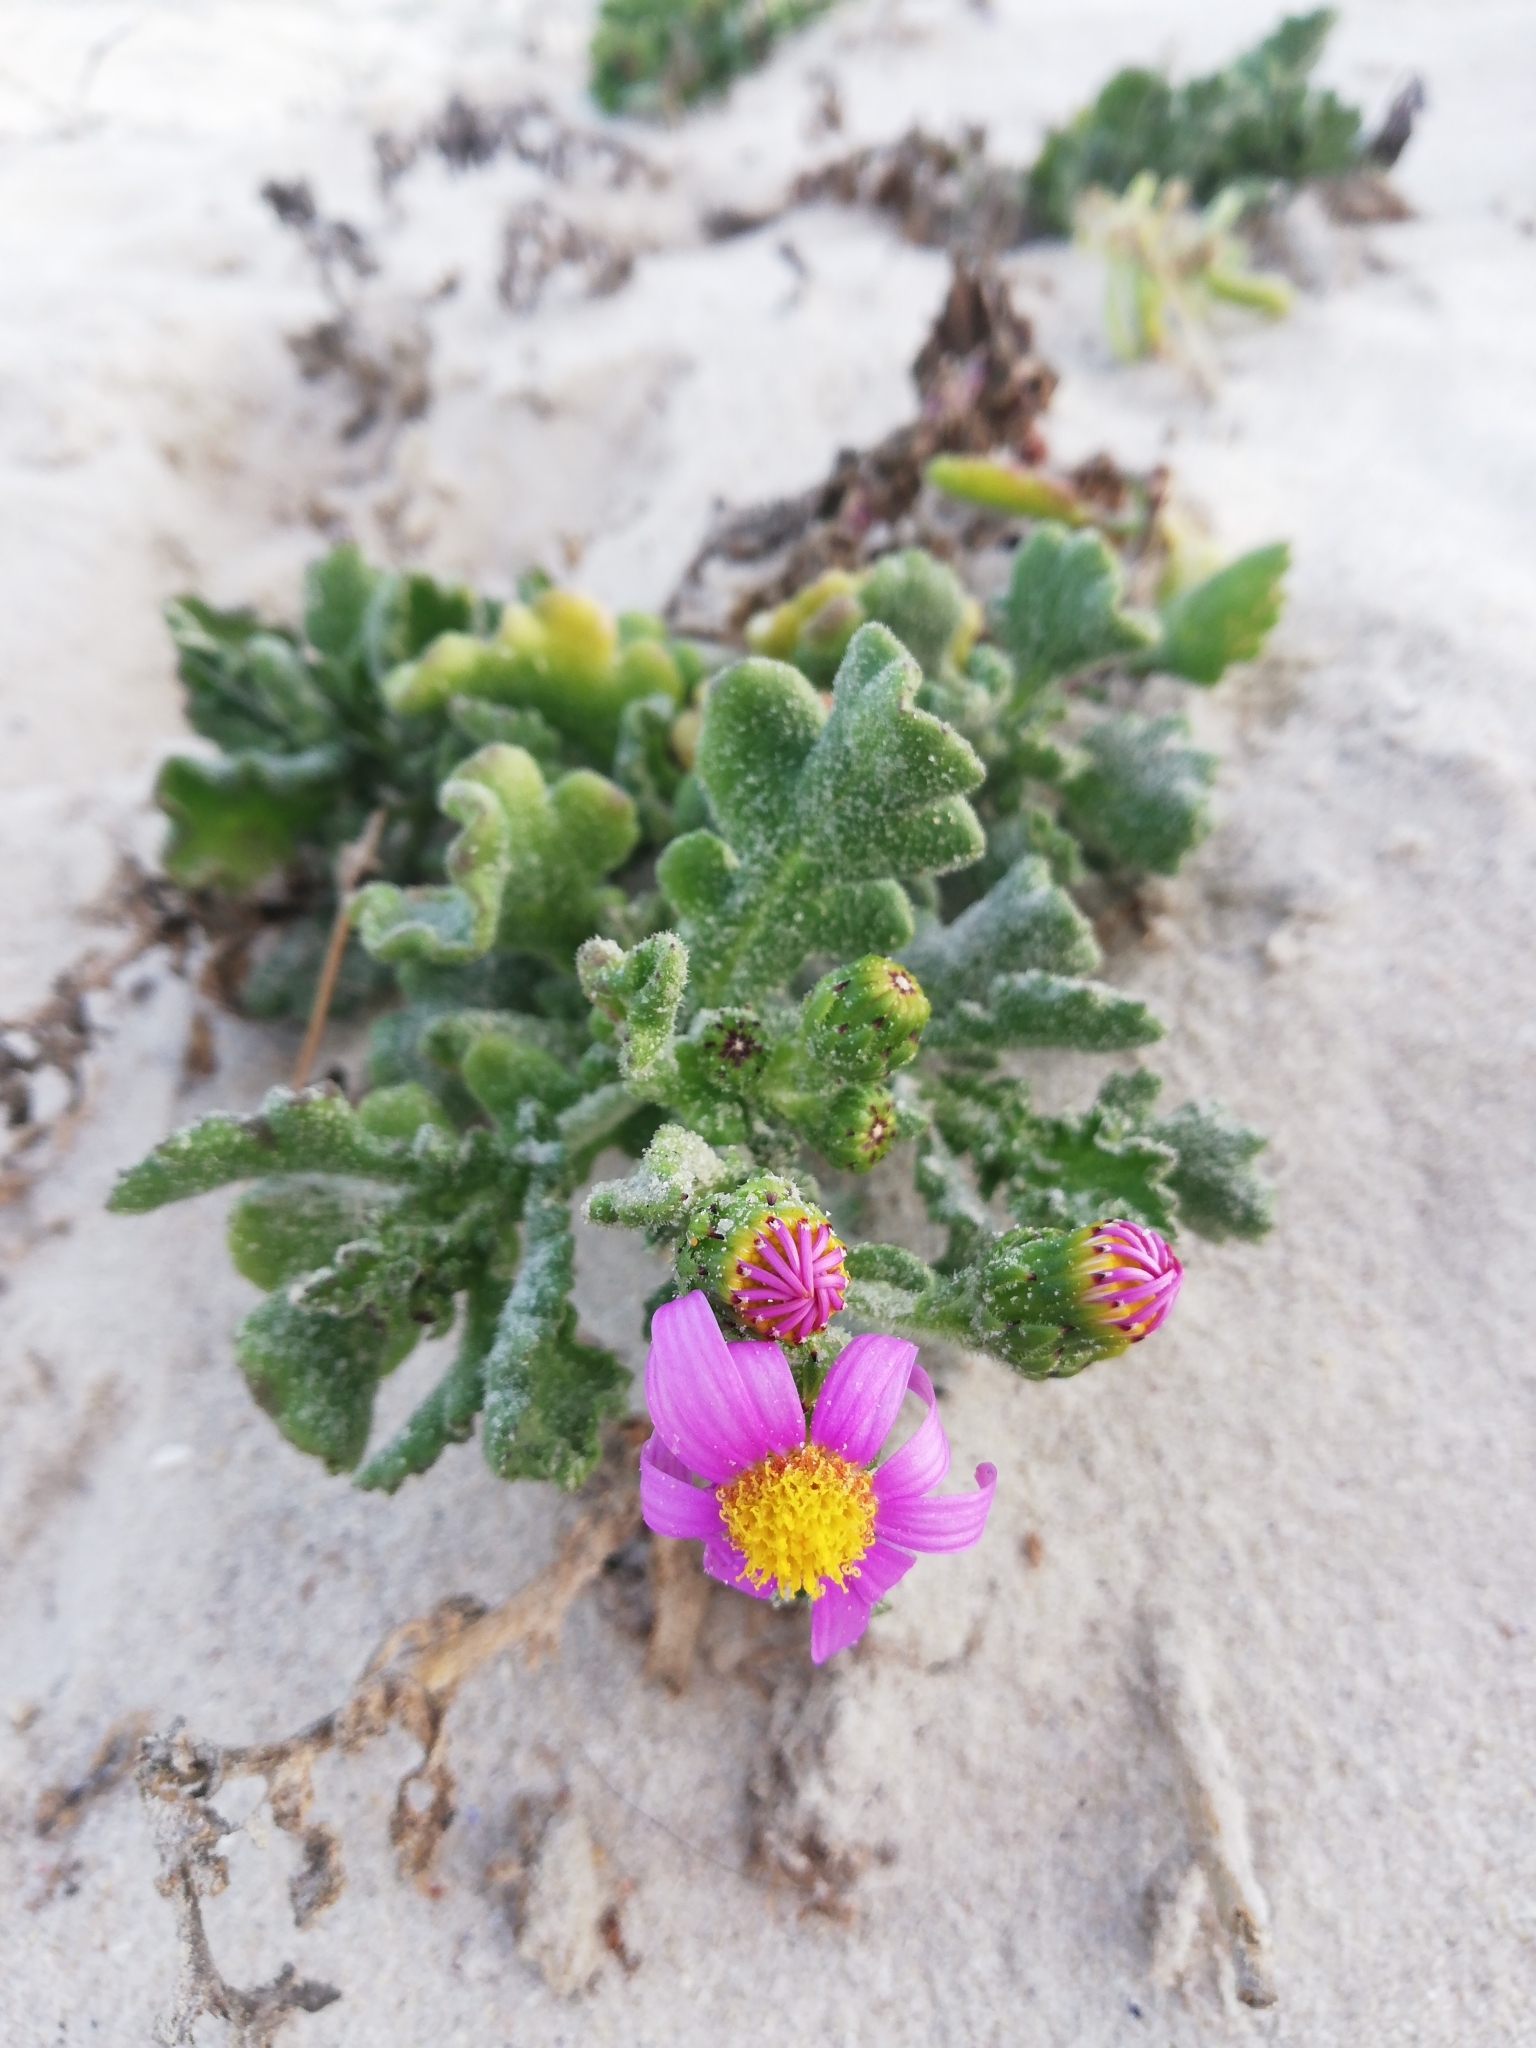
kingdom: Plantae
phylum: Tracheophyta
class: Magnoliopsida
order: Asterales
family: Asteraceae
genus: Senecio
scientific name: Senecio elegans
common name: Purple groundsel
